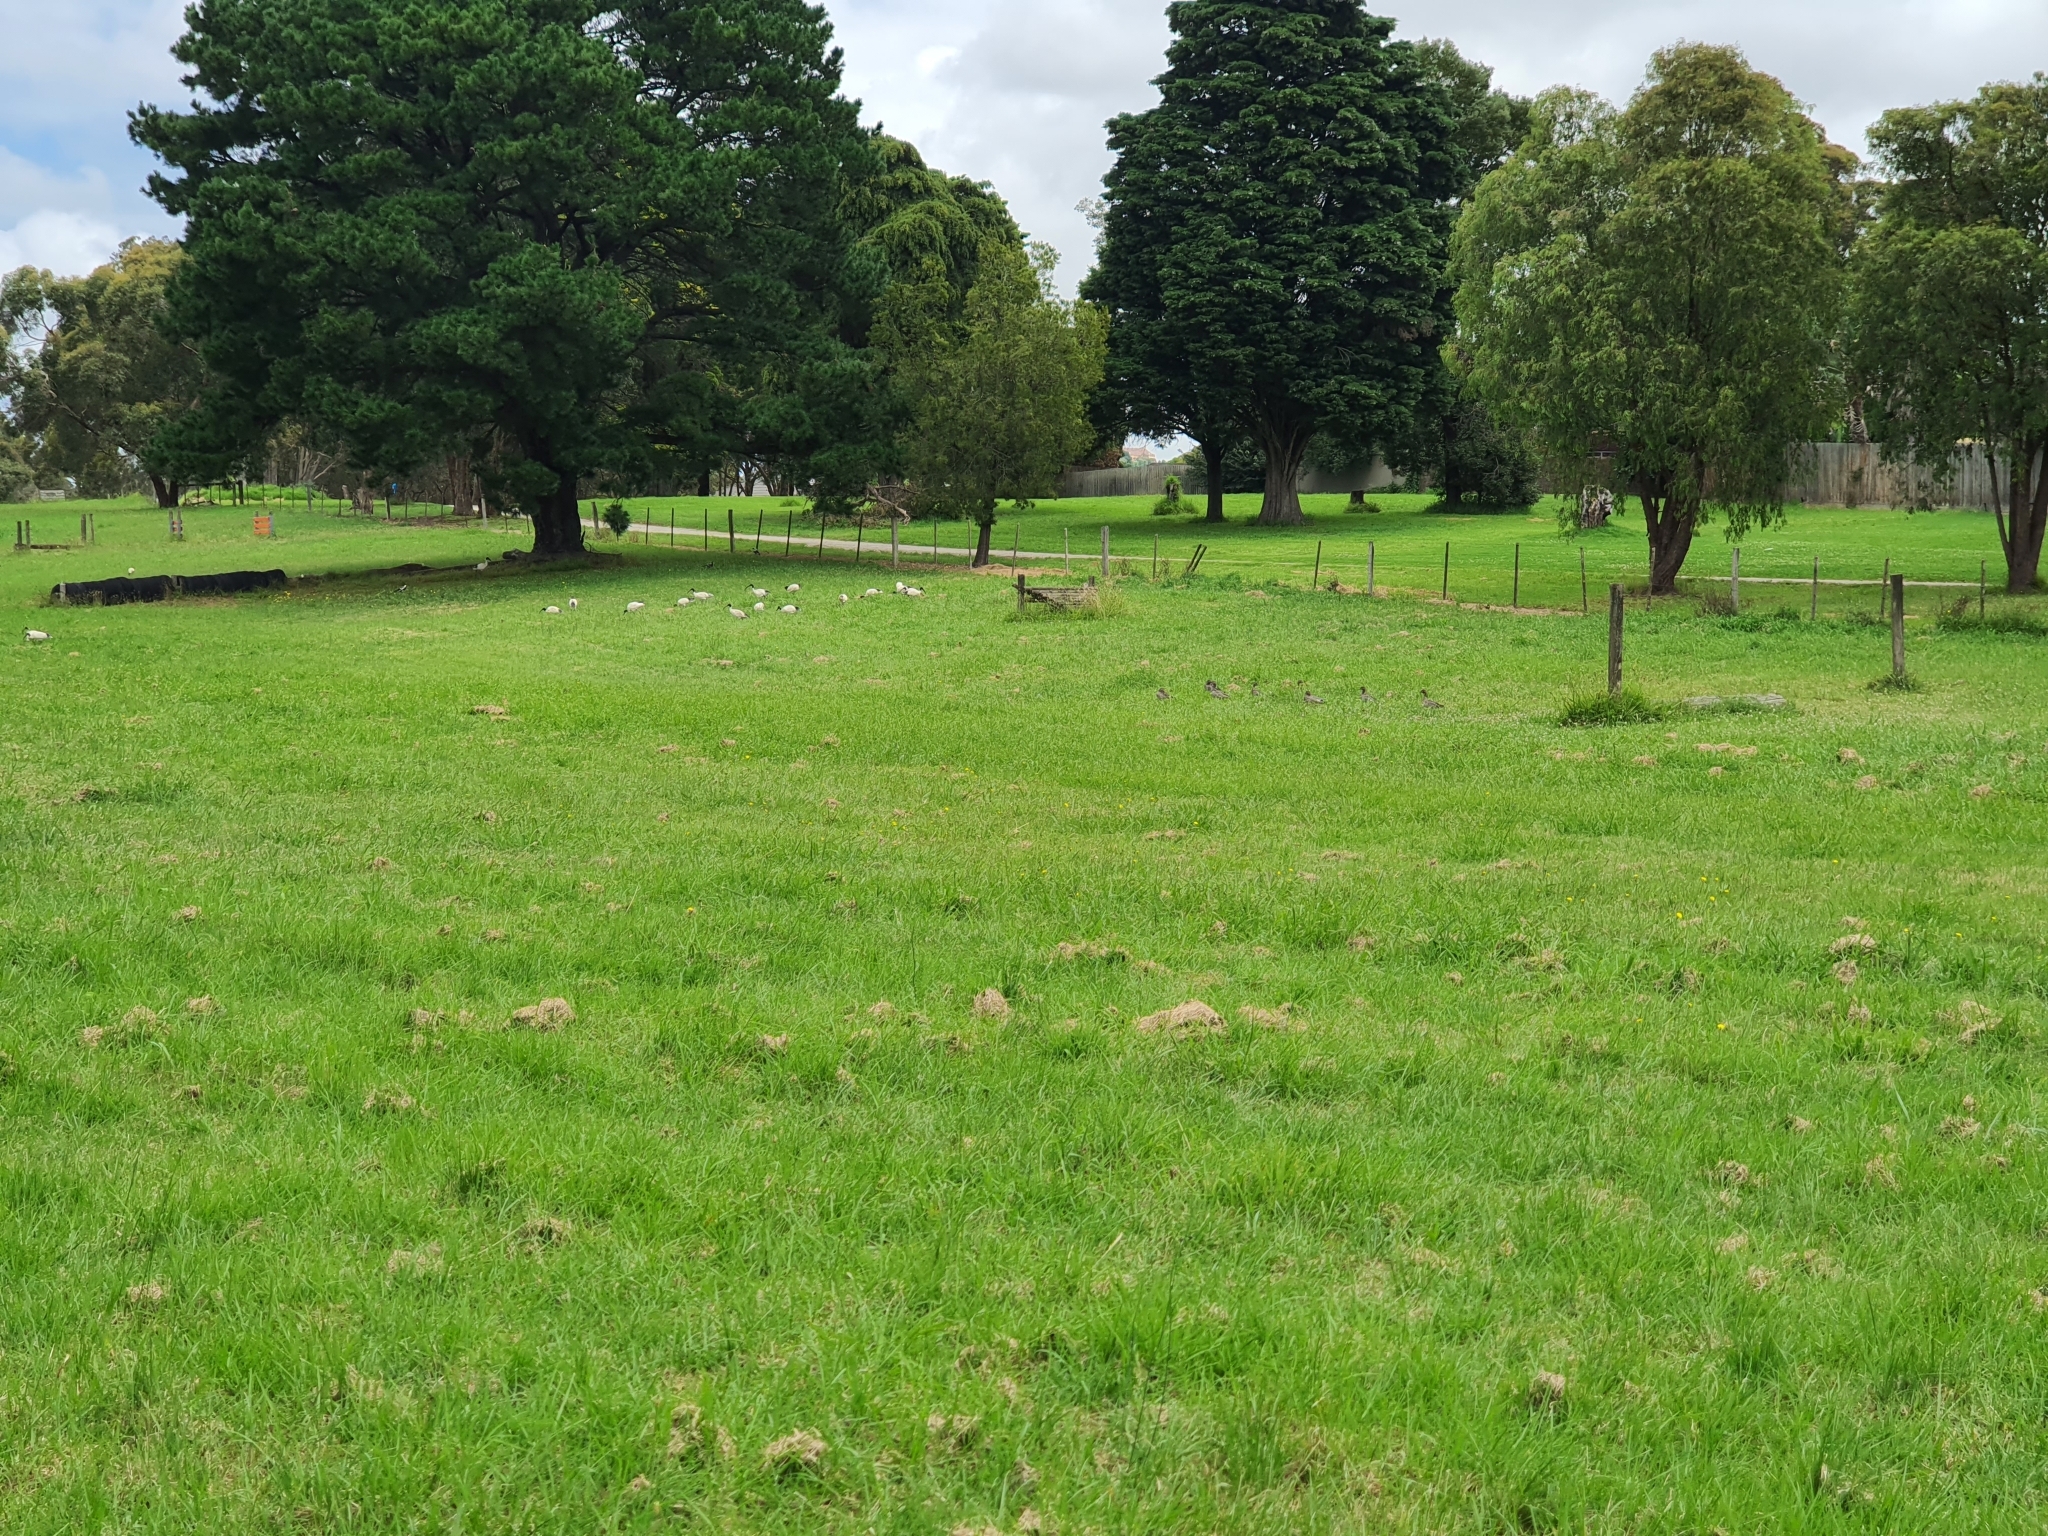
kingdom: Animalia
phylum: Chordata
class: Aves
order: Pelecaniformes
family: Threskiornithidae
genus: Threskiornis
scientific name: Threskiornis molucca
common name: Australian white ibis
